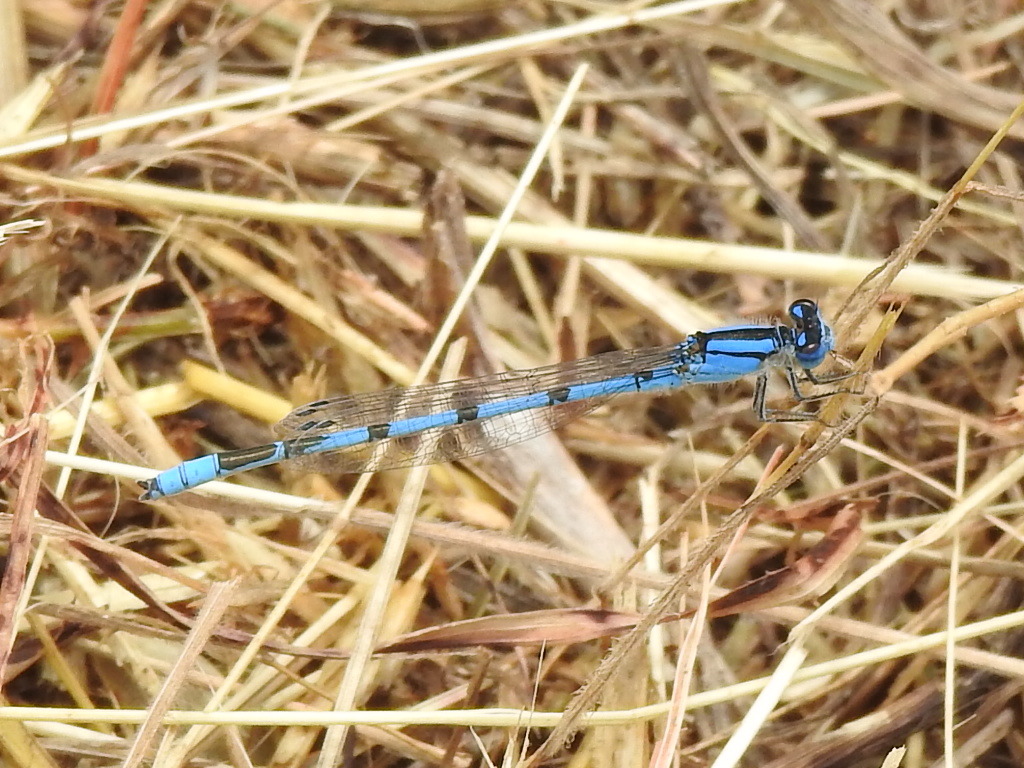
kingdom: Animalia
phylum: Arthropoda
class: Insecta
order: Odonata
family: Coenagrionidae
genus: Enallagma
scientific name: Enallagma civile
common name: Damselfly
